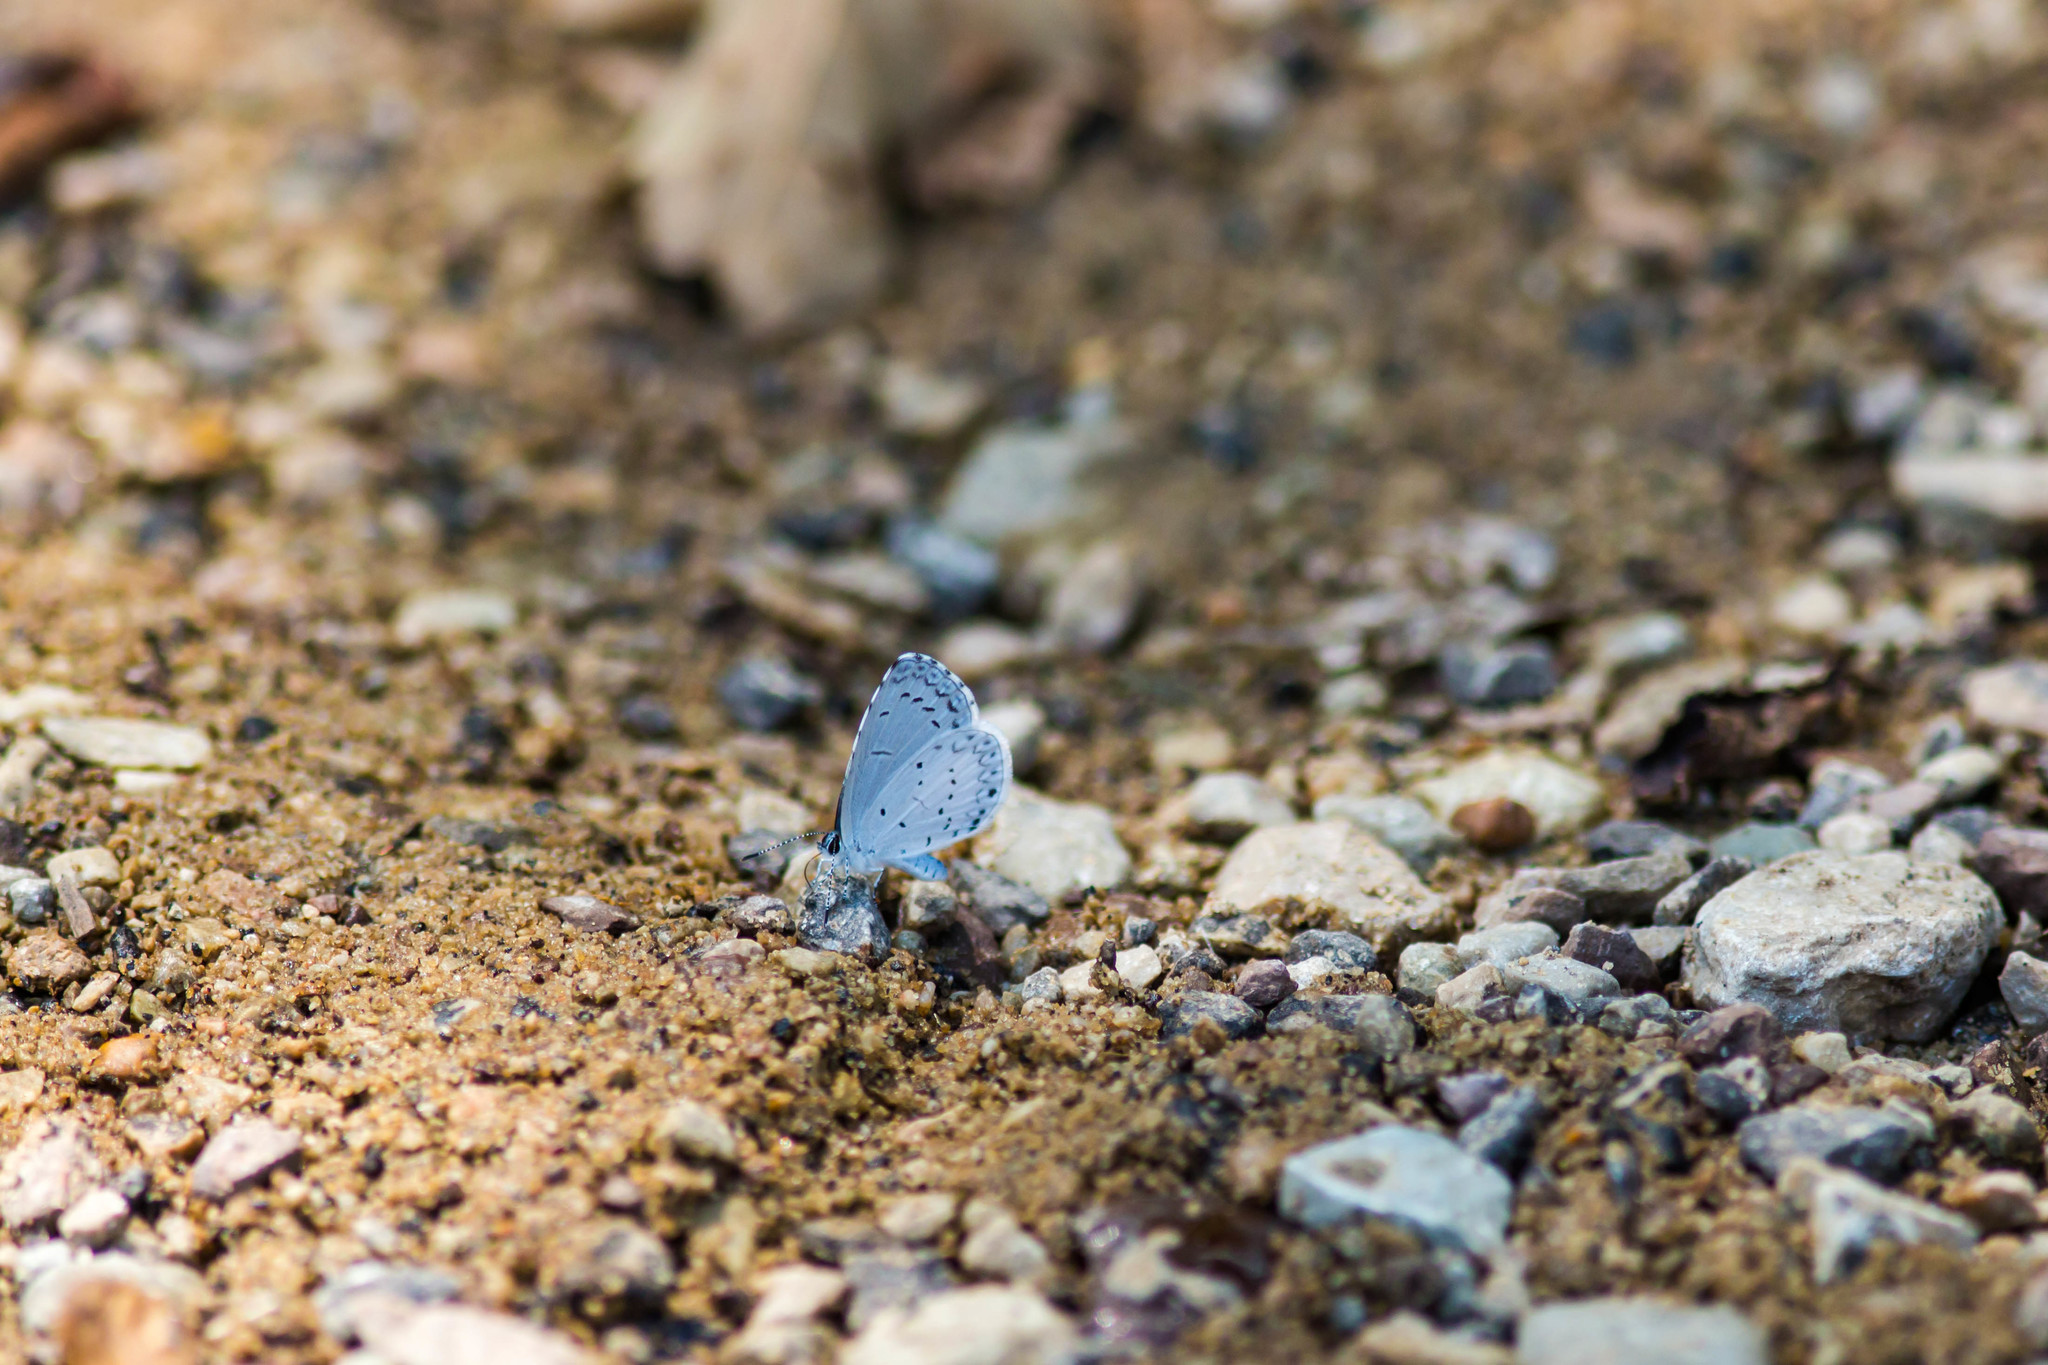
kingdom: Animalia
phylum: Arthropoda
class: Insecta
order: Lepidoptera
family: Lycaenidae
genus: Cyaniris
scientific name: Cyaniris neglecta
